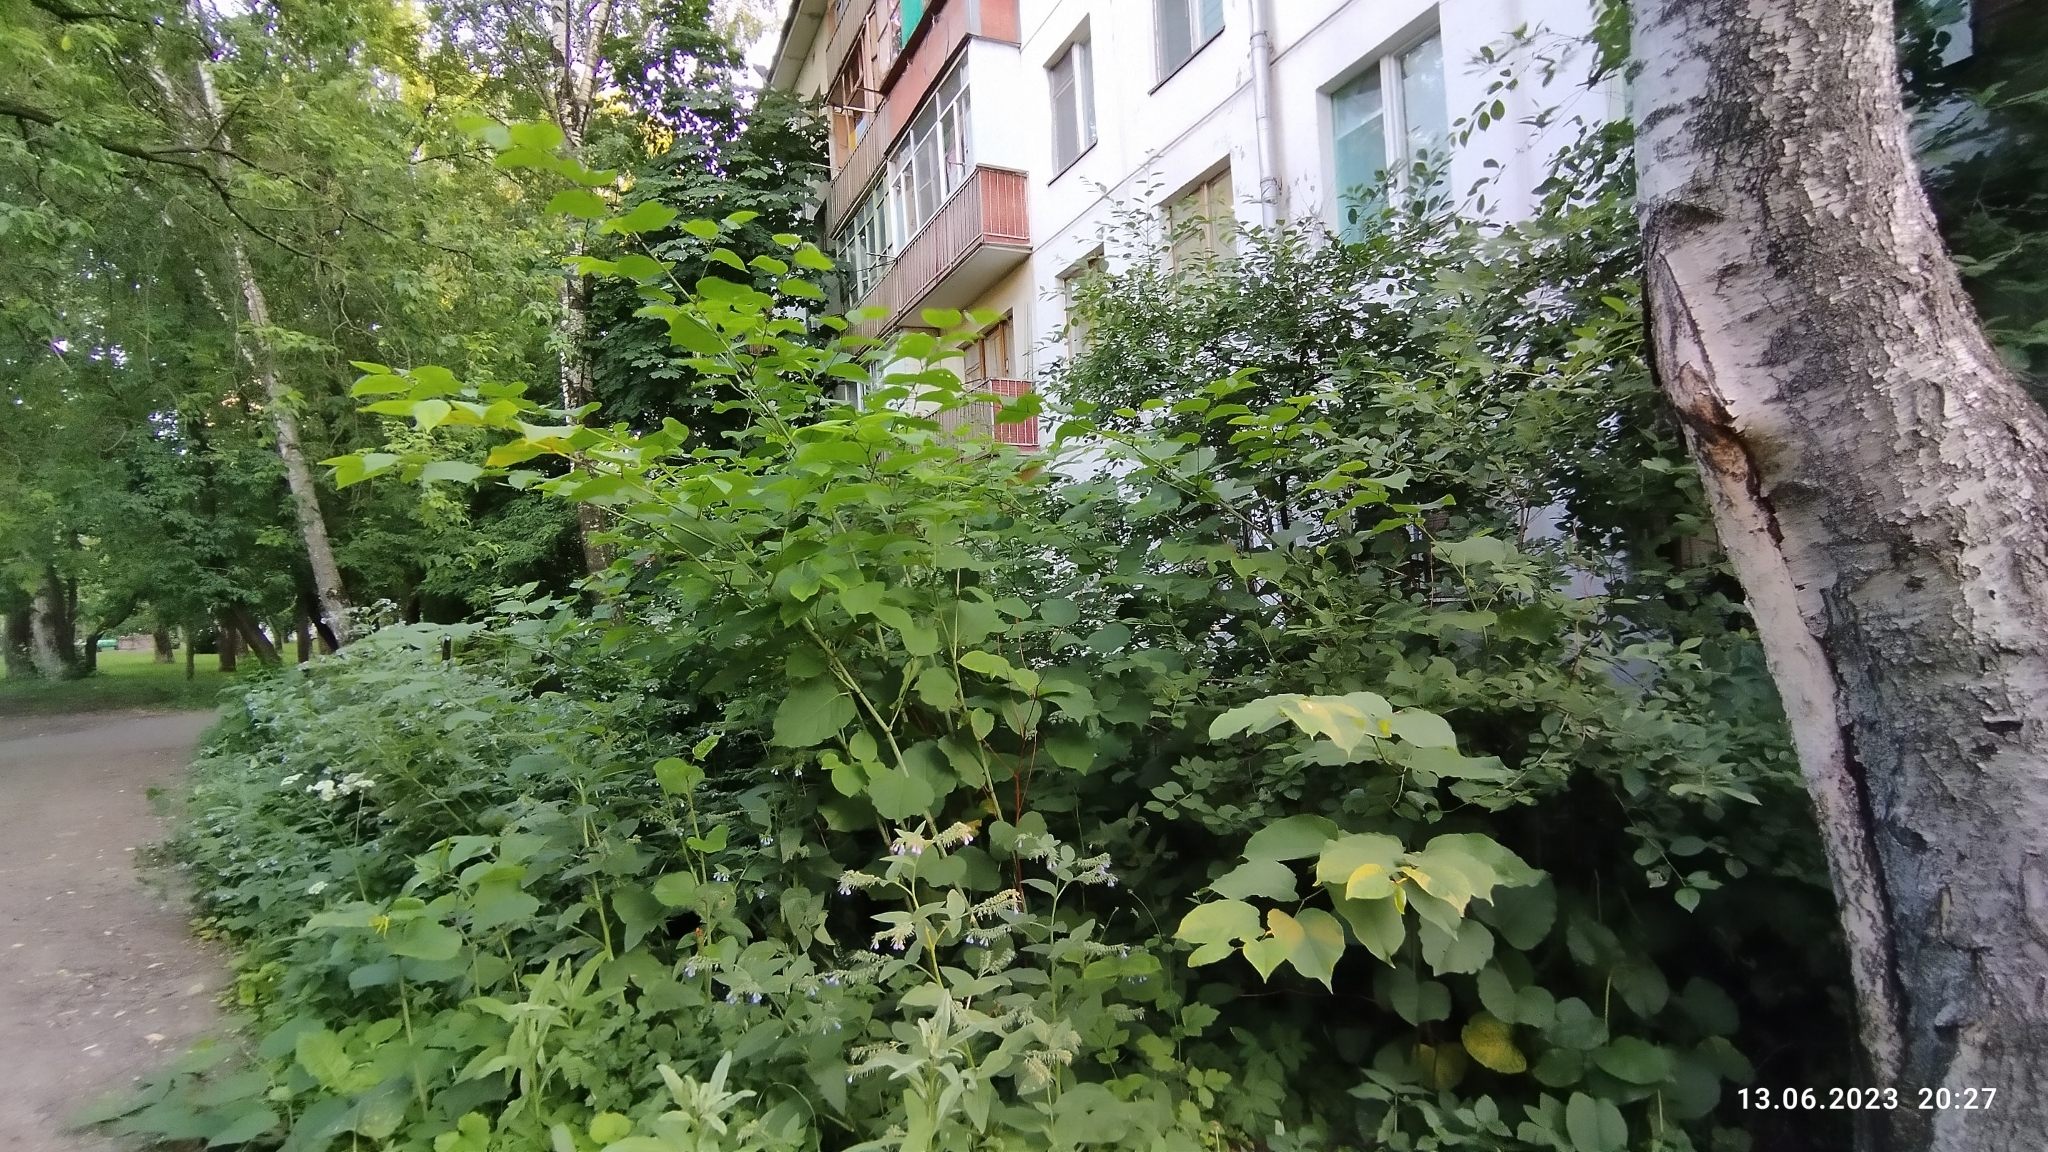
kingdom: Plantae
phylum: Tracheophyta
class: Magnoliopsida
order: Caryophyllales
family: Polygonaceae
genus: Reynoutria
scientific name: Reynoutria bohemica
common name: Bohemian knotweed
